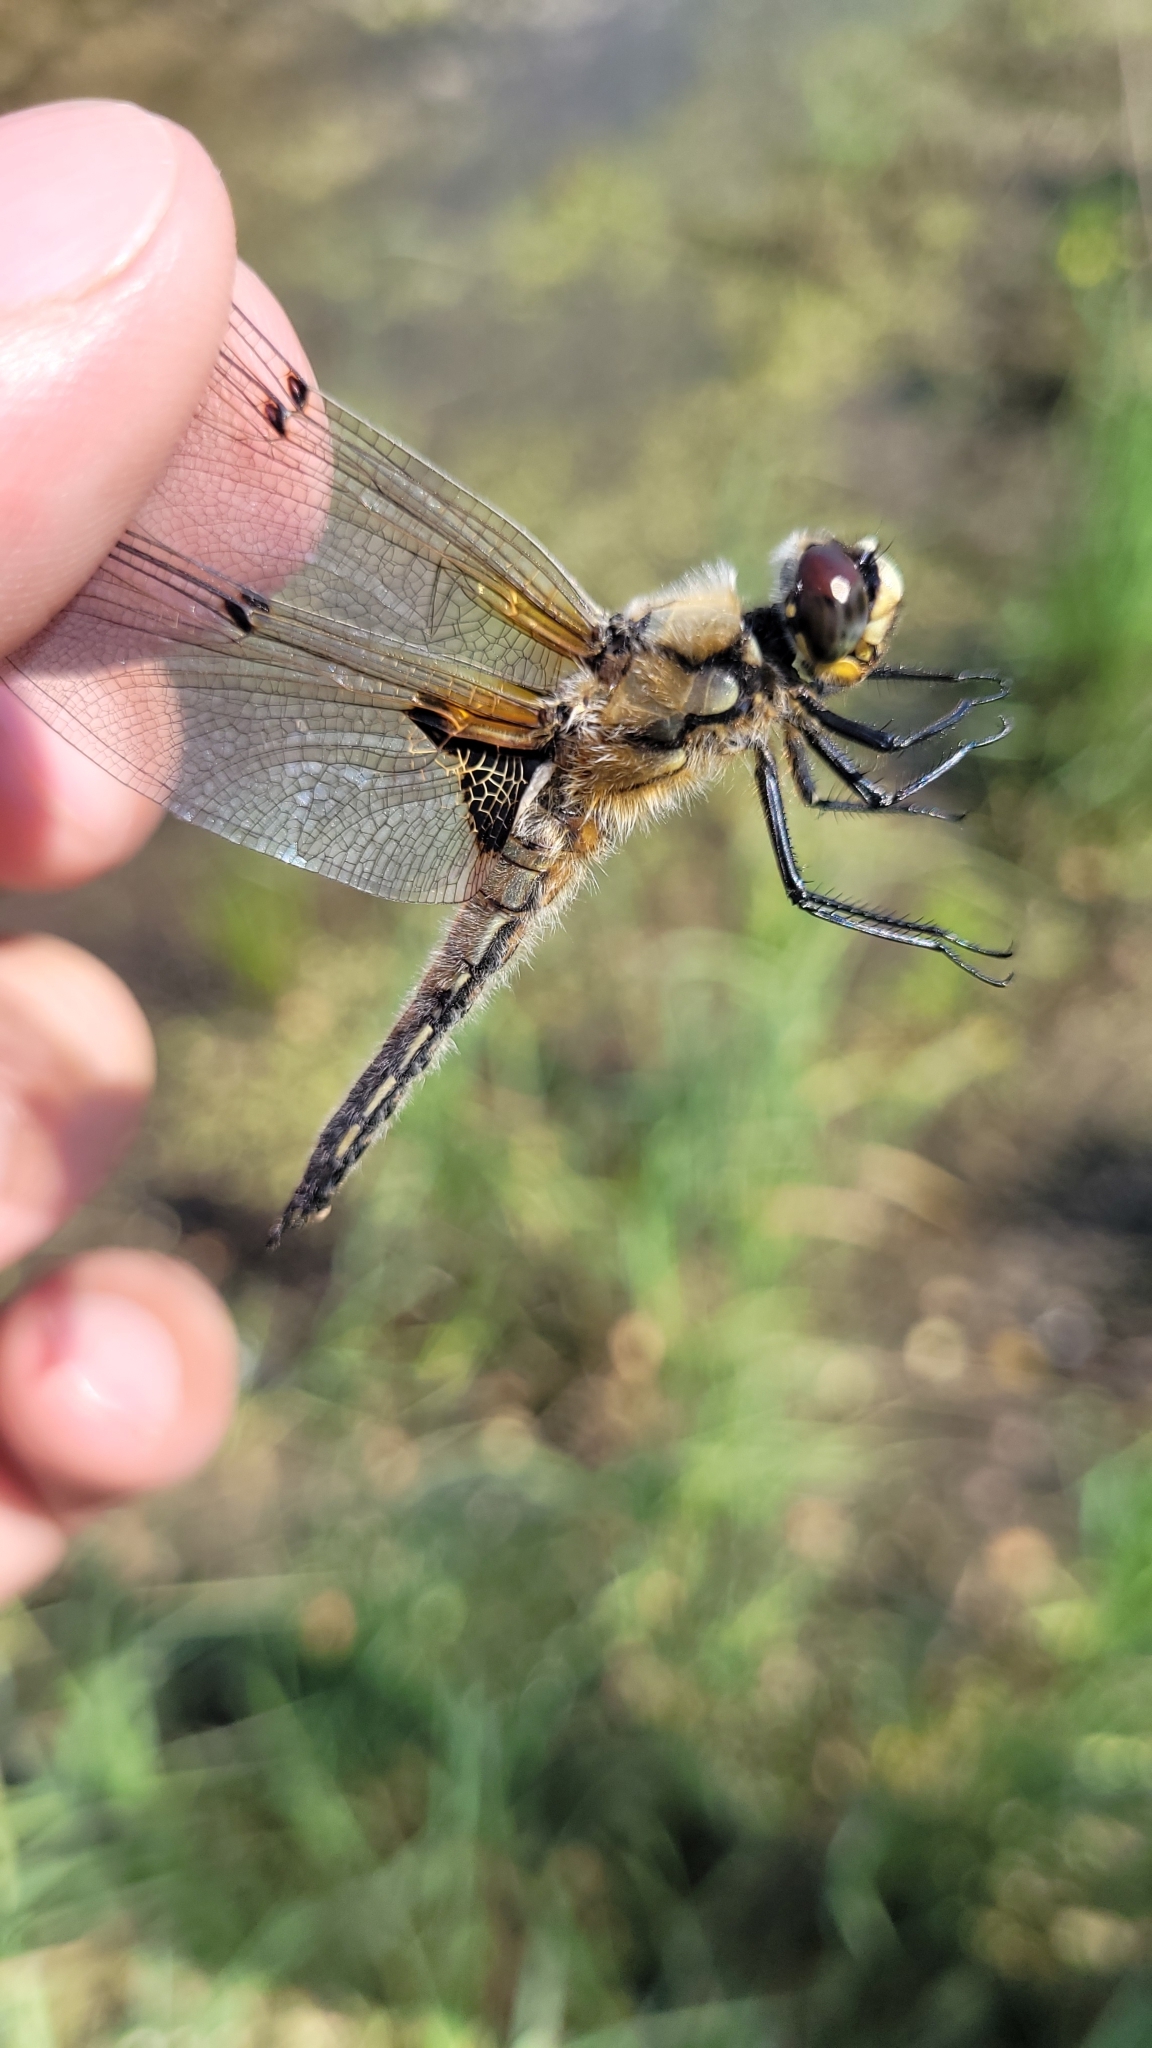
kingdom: Animalia
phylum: Arthropoda
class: Insecta
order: Odonata
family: Libellulidae
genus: Libellula
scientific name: Libellula quadrimaculata
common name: Four-spotted chaser
